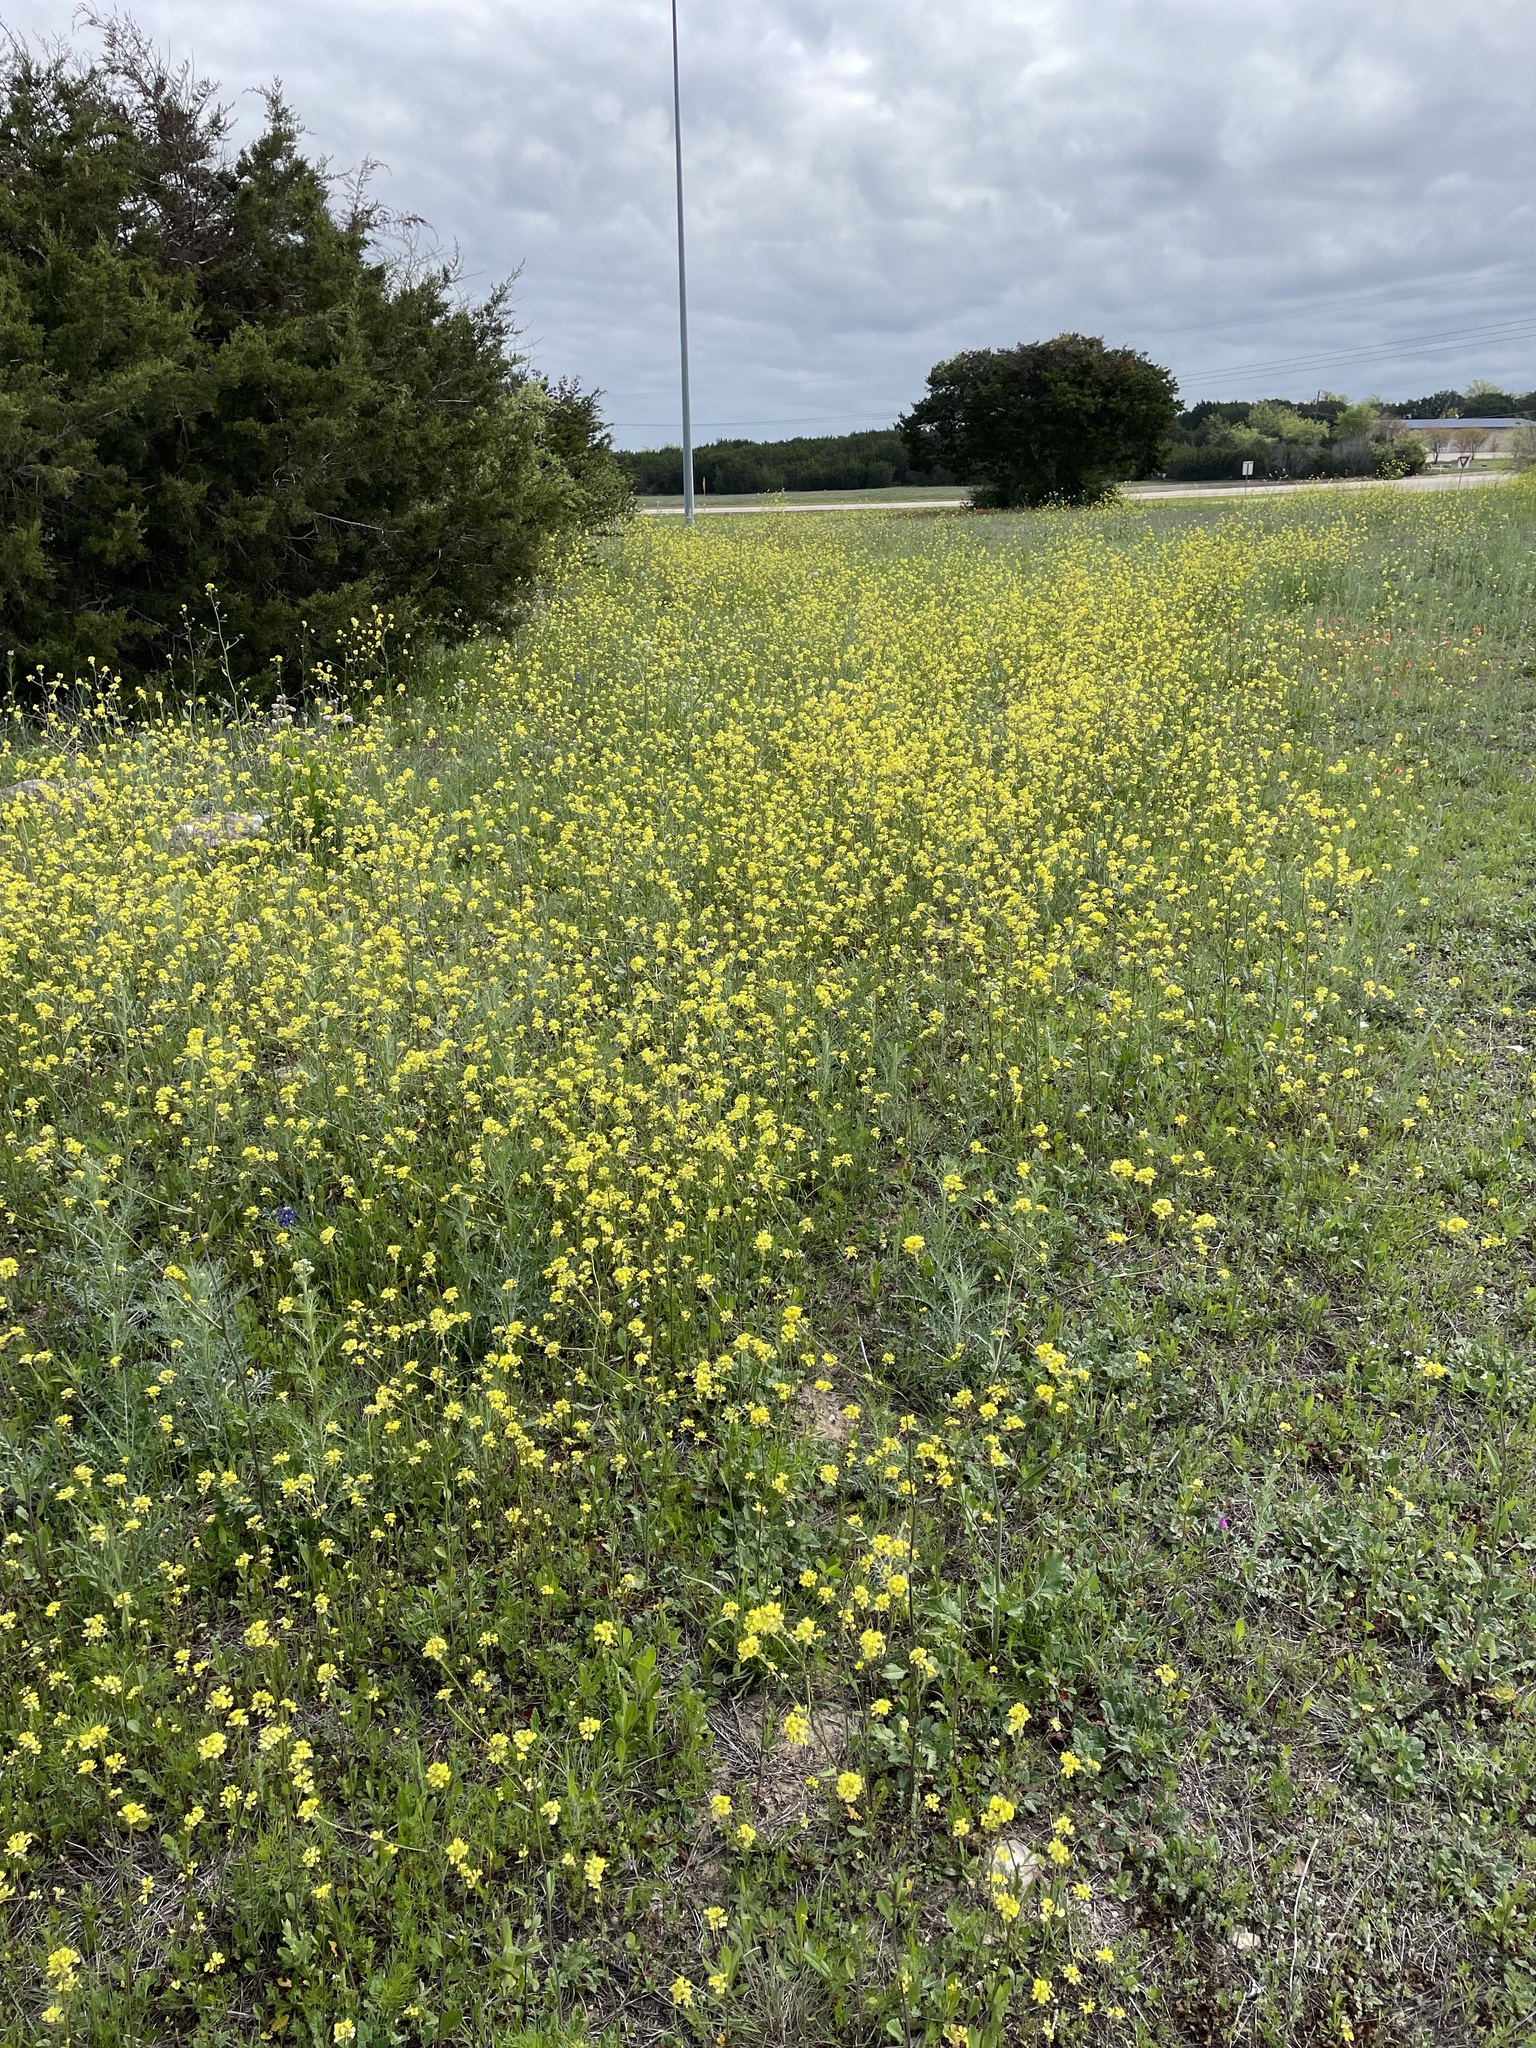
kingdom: Plantae
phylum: Tracheophyta
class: Magnoliopsida
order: Brassicales
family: Brassicaceae
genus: Rapistrum
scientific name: Rapistrum rugosum
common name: Annual bastardcabbage
